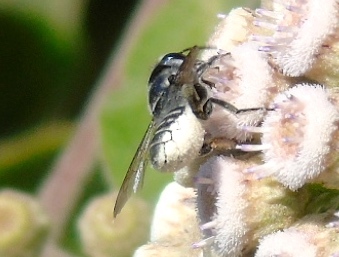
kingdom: Animalia
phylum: Arthropoda
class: Insecta
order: Hymenoptera
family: Megachilidae
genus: Megachile
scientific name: Megachile
